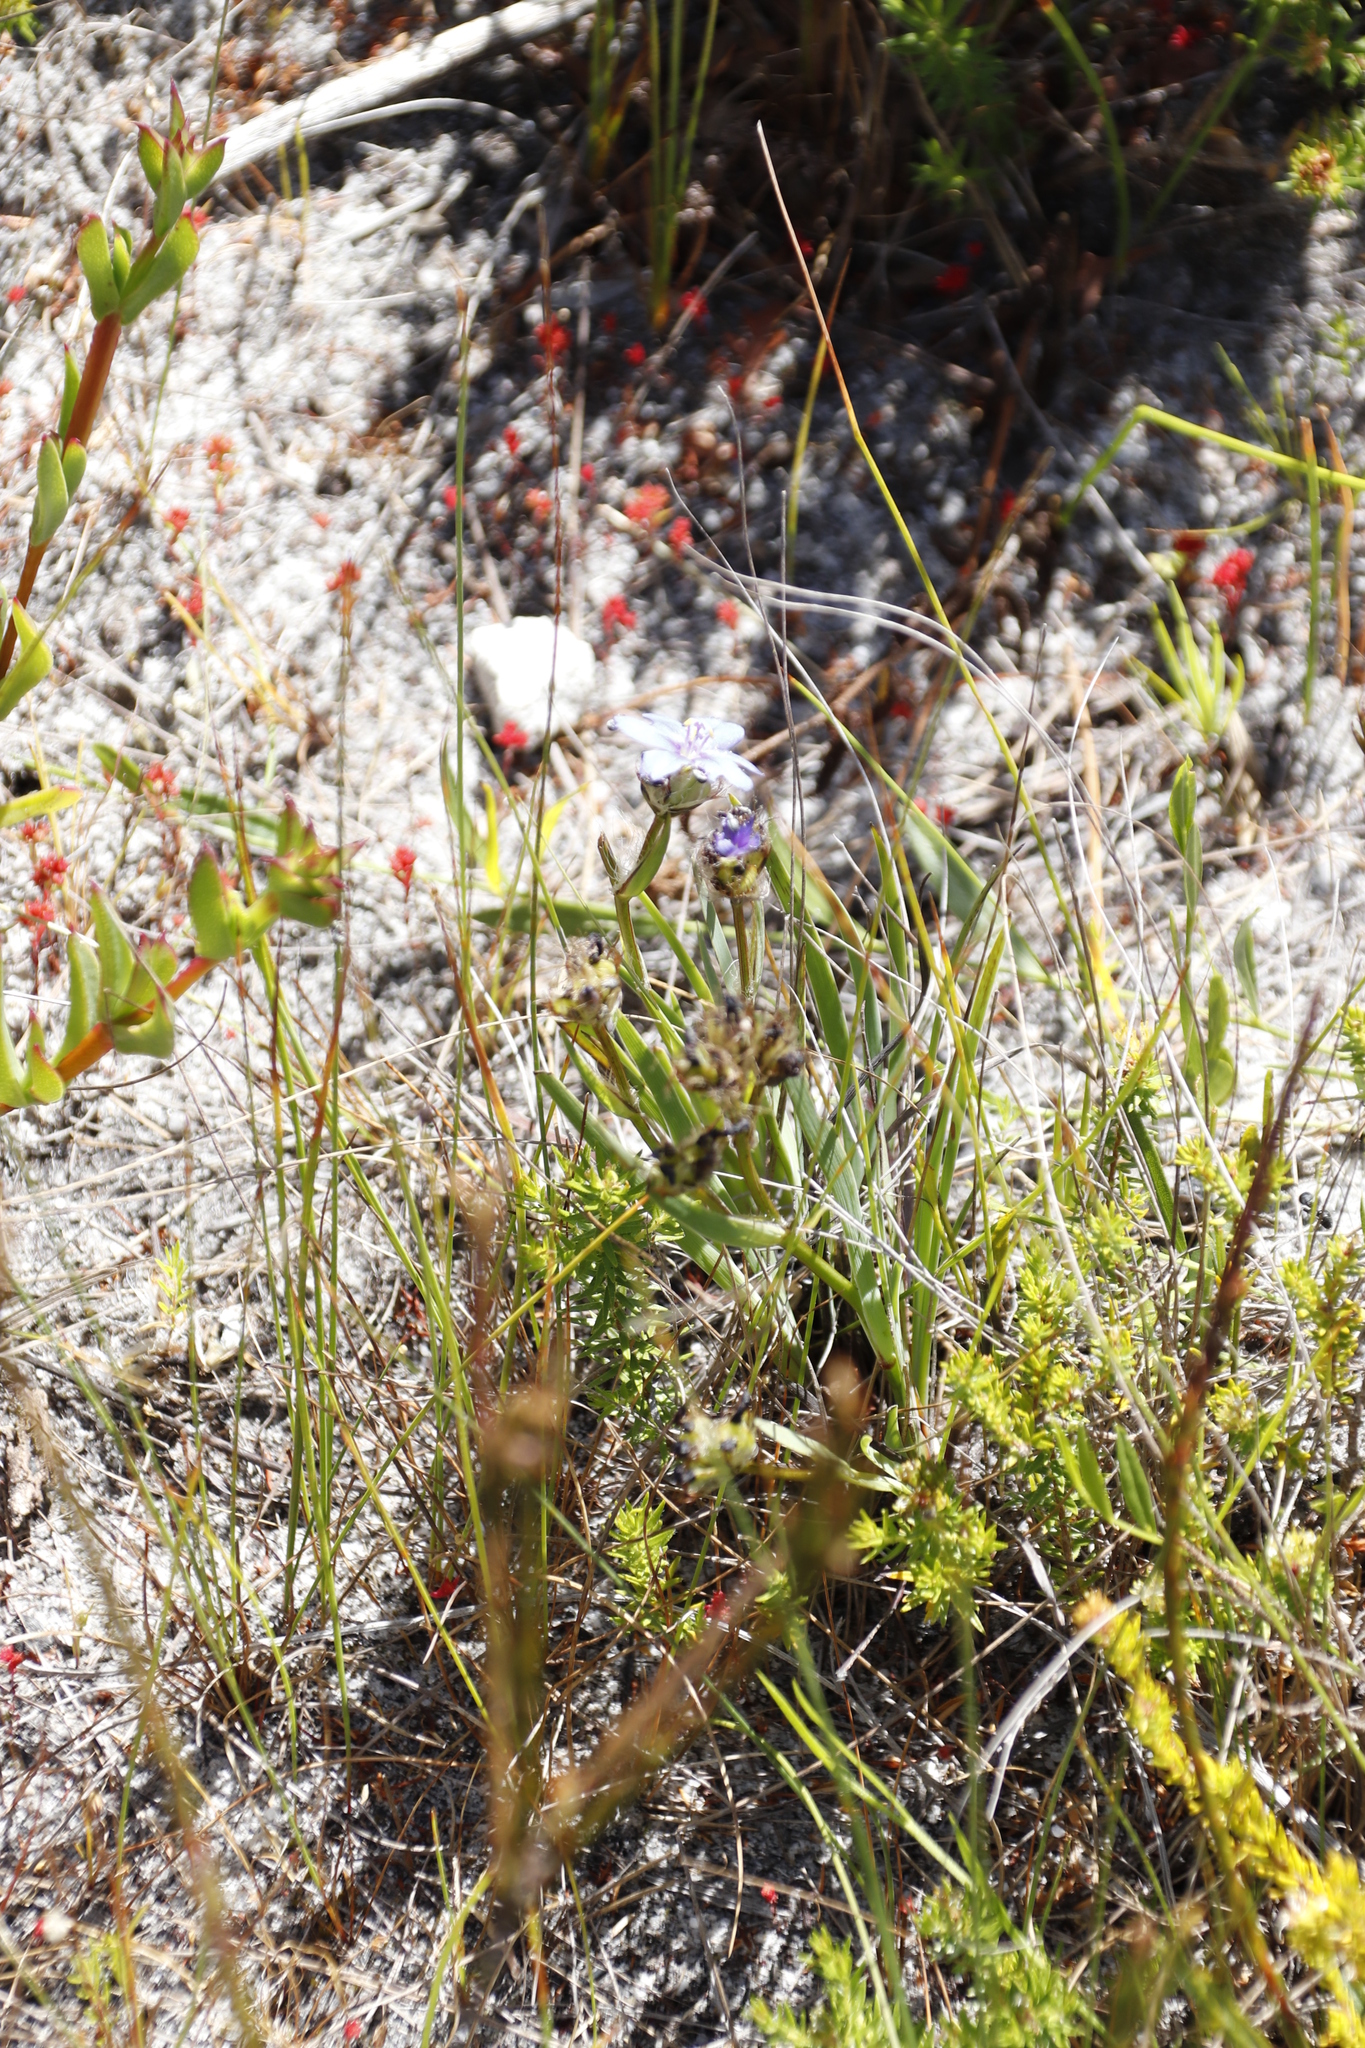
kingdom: Plantae
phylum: Tracheophyta
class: Liliopsida
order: Asparagales
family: Iridaceae
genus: Aristea
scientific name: Aristea africana
